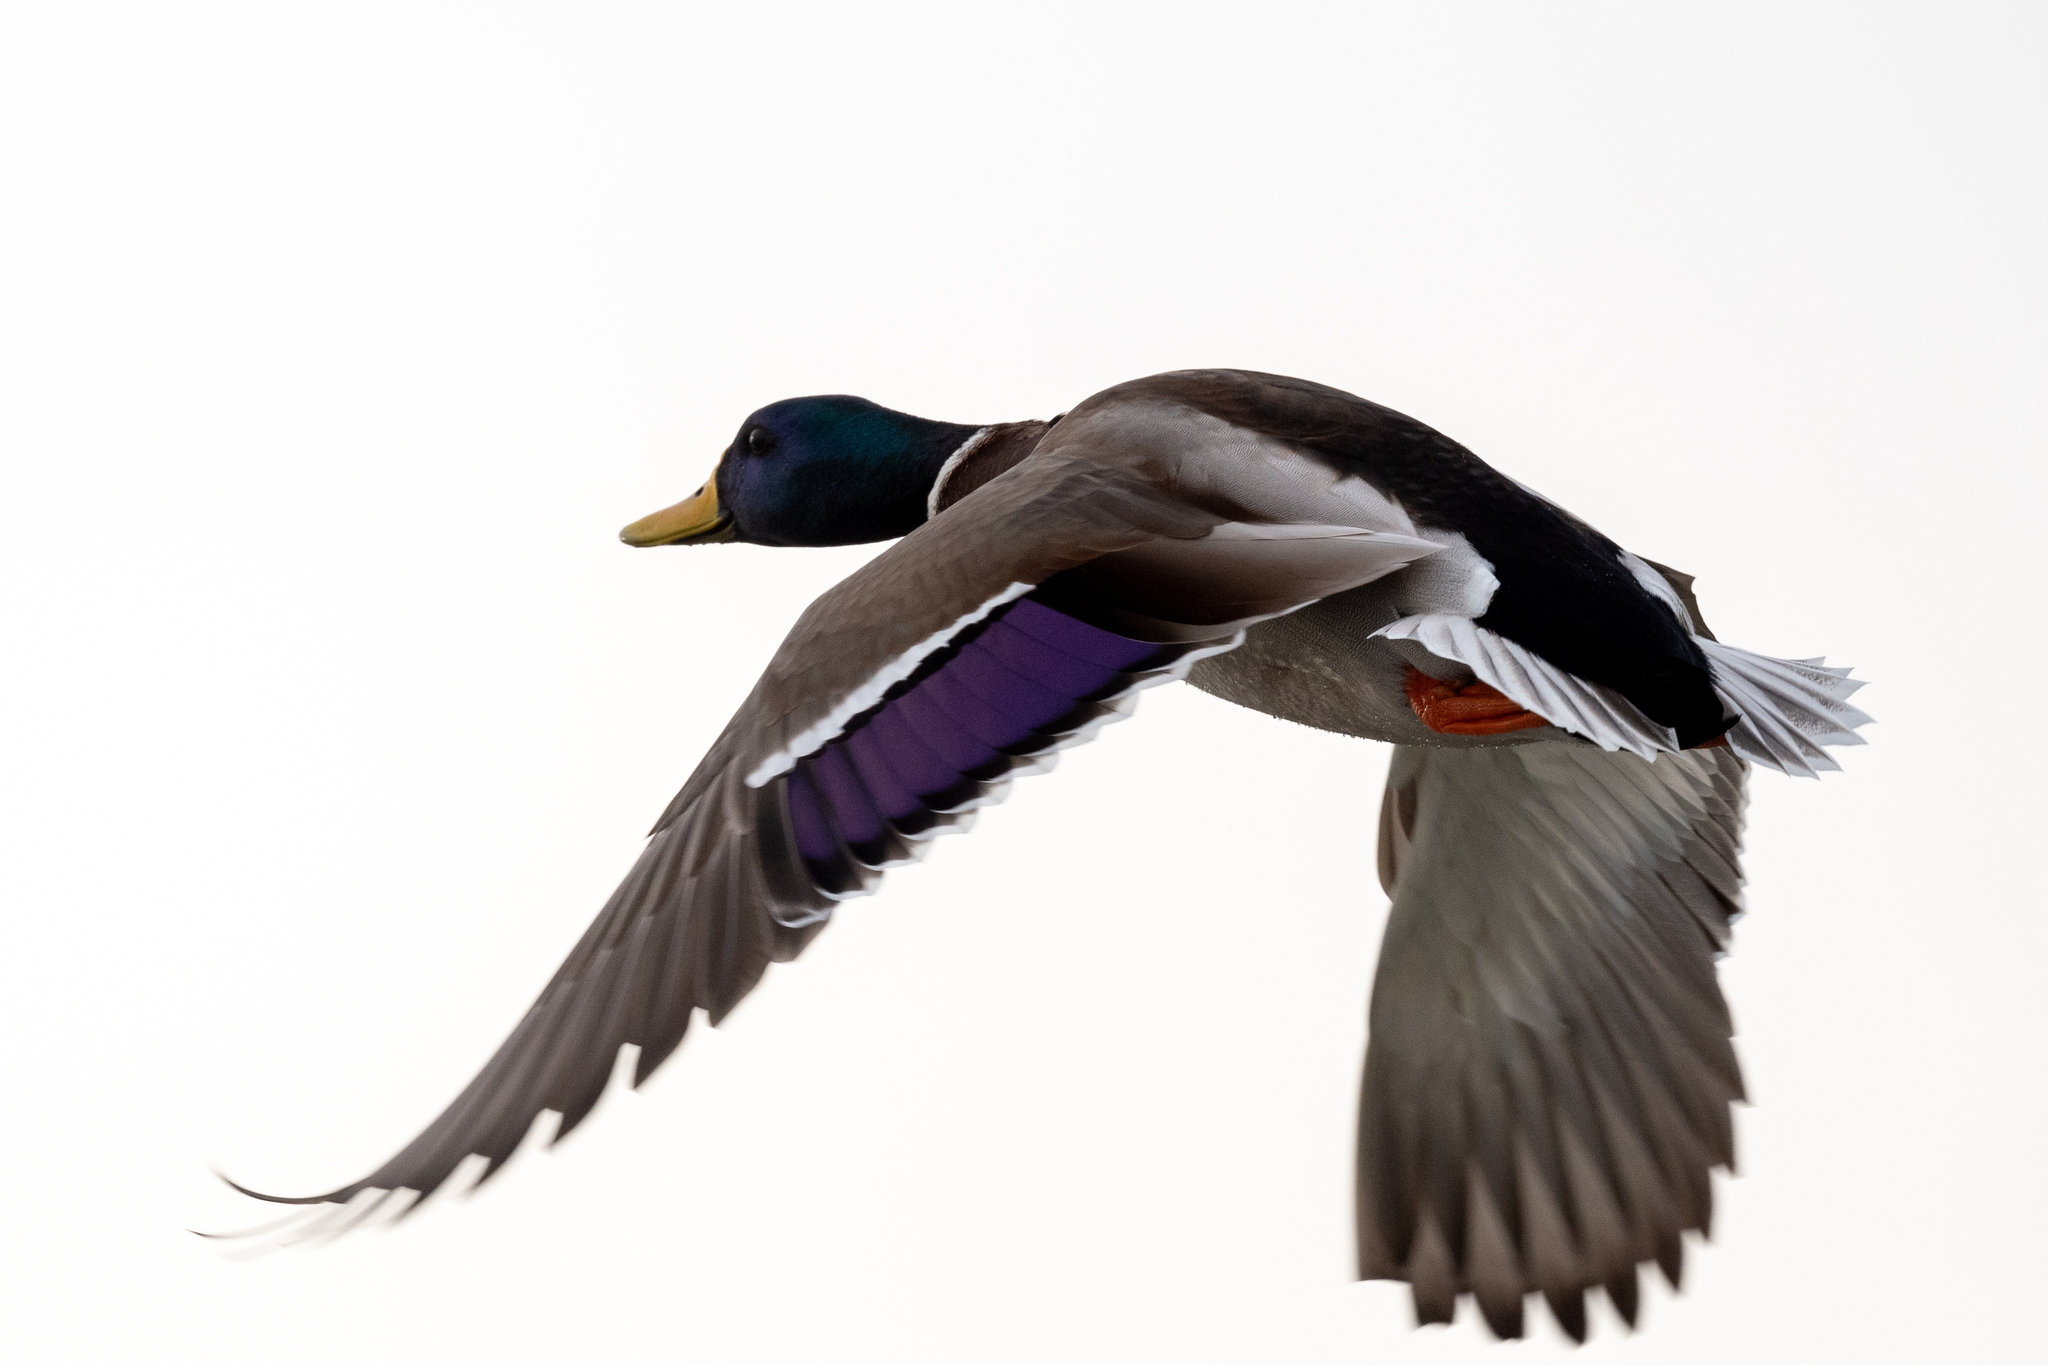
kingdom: Animalia
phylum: Chordata
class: Aves
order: Anseriformes
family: Anatidae
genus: Anas
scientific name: Anas platyrhynchos
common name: Mallard
